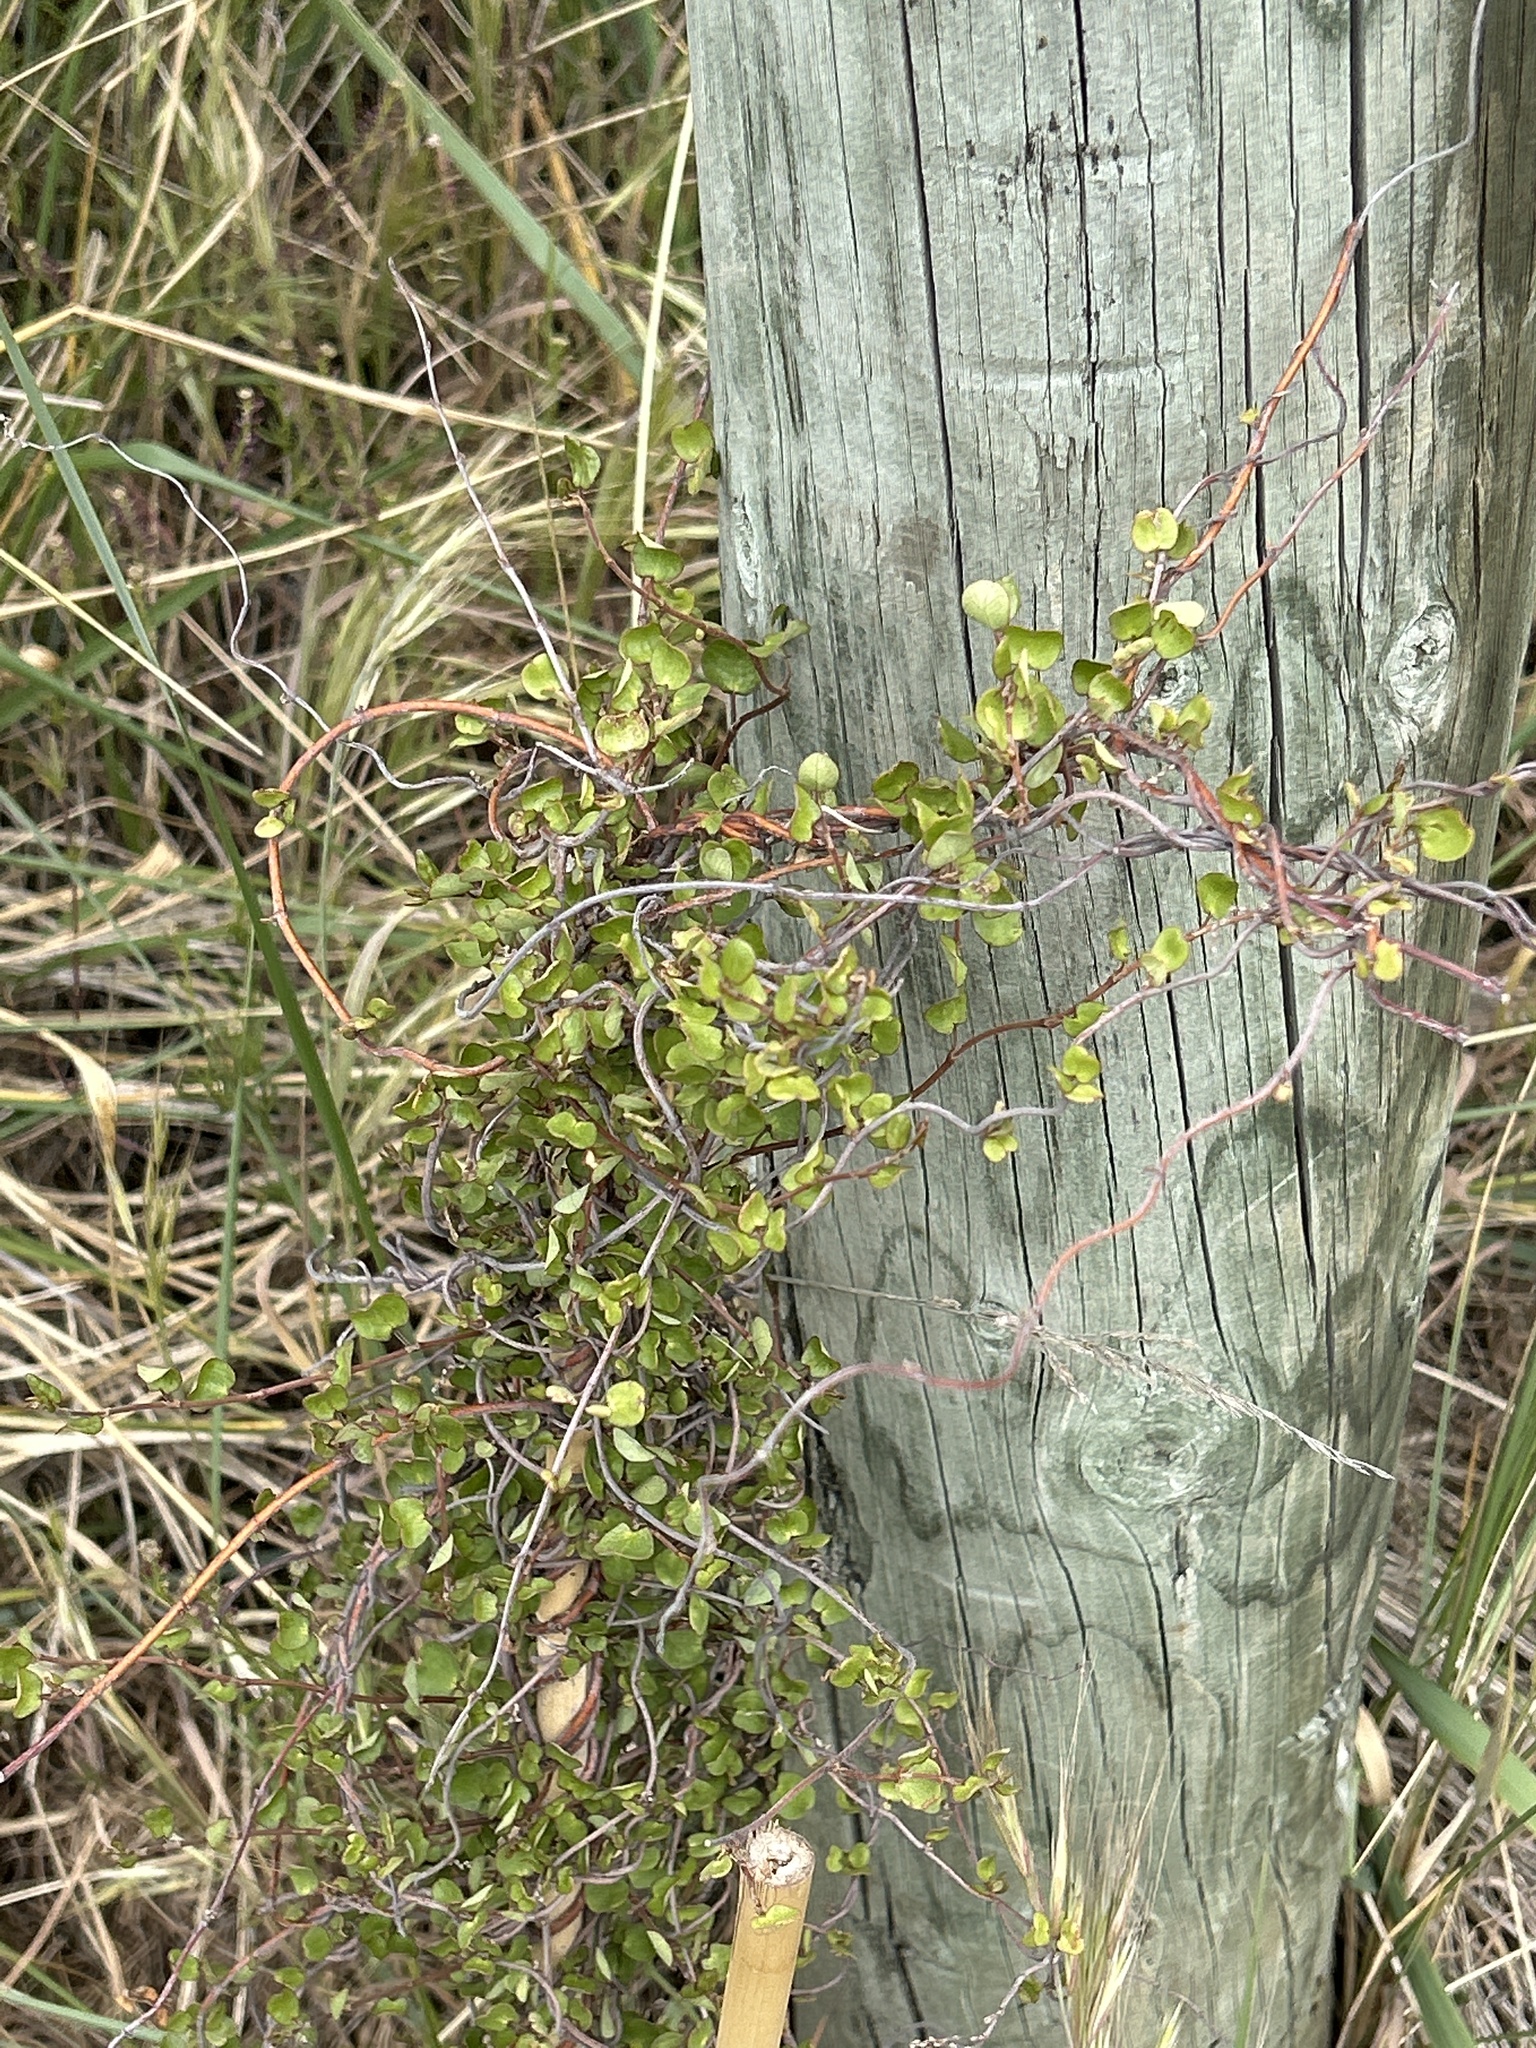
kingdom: Plantae
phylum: Tracheophyta
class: Magnoliopsida
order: Caryophyllales
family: Polygonaceae
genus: Muehlenbeckia
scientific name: Muehlenbeckia complexa
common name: Wireplant
